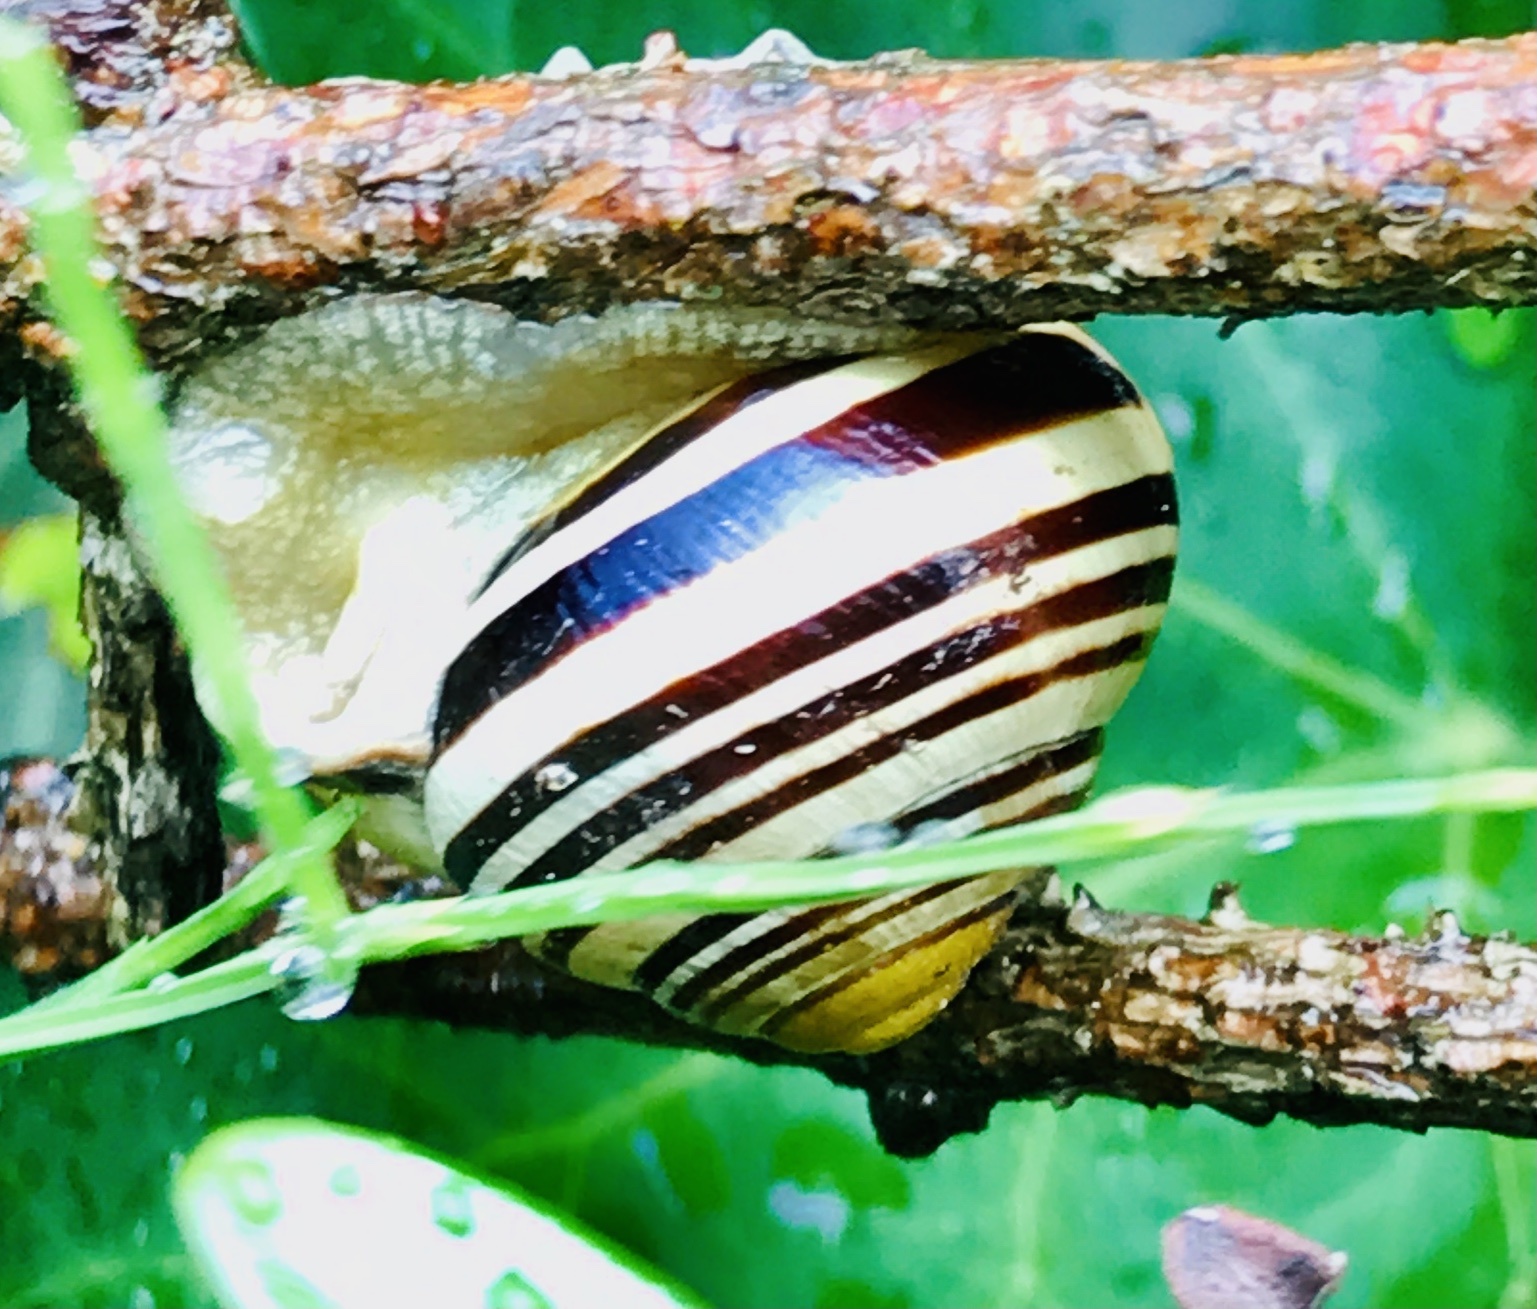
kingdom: Animalia
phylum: Mollusca
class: Gastropoda
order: Stylommatophora
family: Helicidae
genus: Cepaea
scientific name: Cepaea nemoralis
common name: Grovesnail
